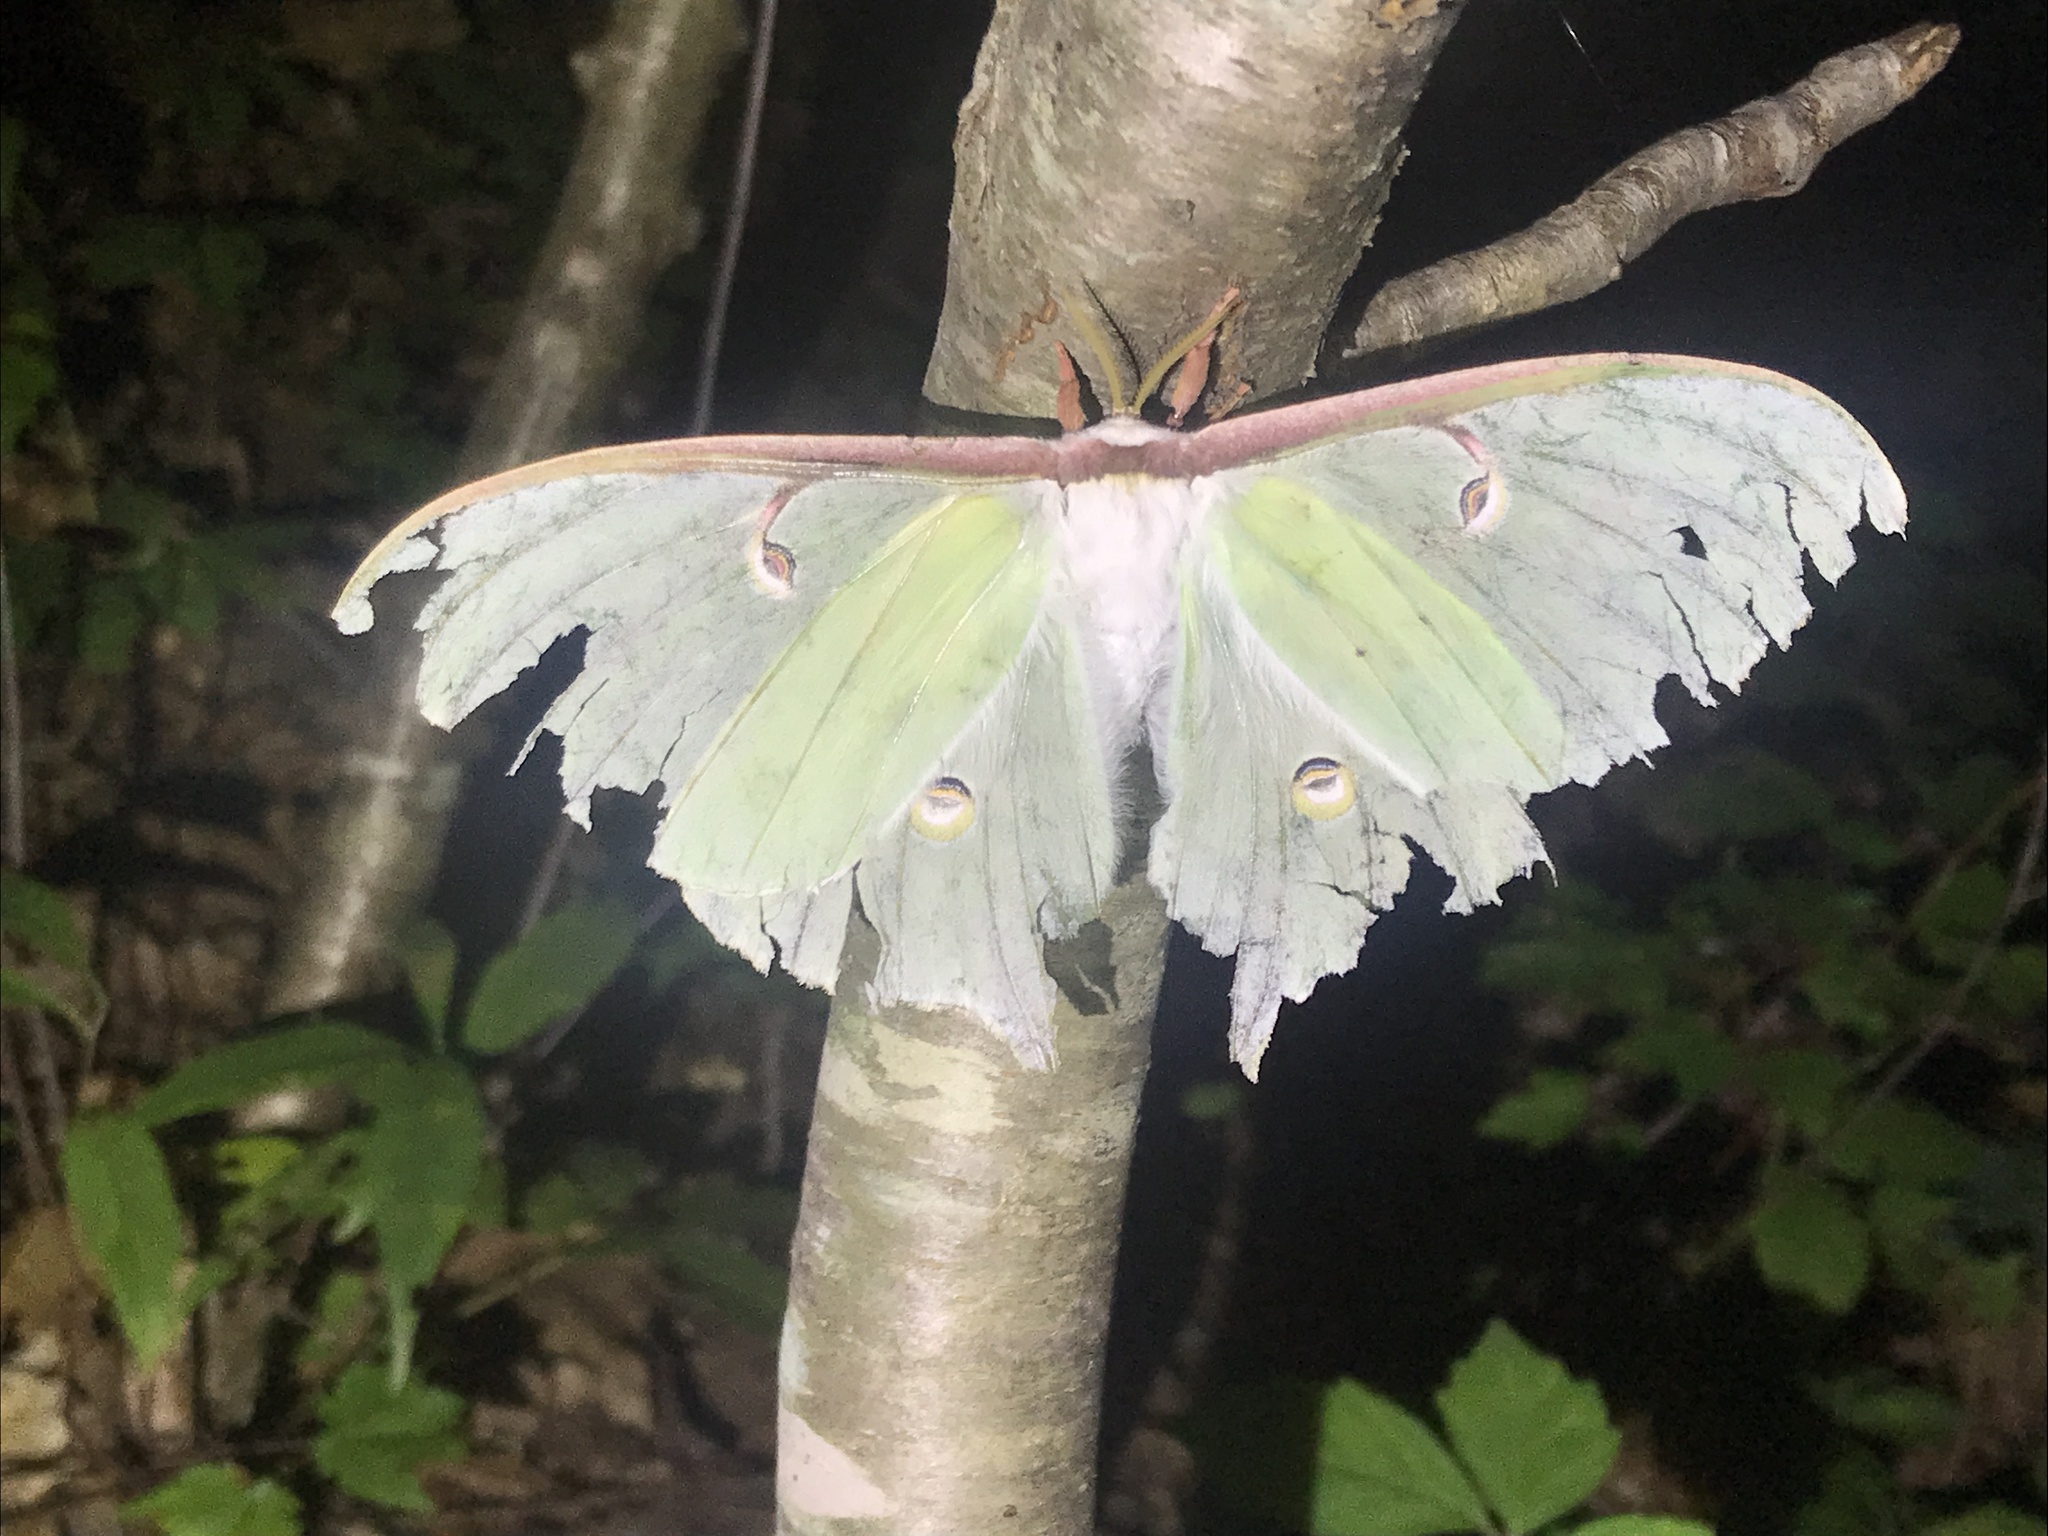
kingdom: Animalia
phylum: Arthropoda
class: Insecta
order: Lepidoptera
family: Saturniidae
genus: Actias
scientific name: Actias luna
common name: Luna moth
